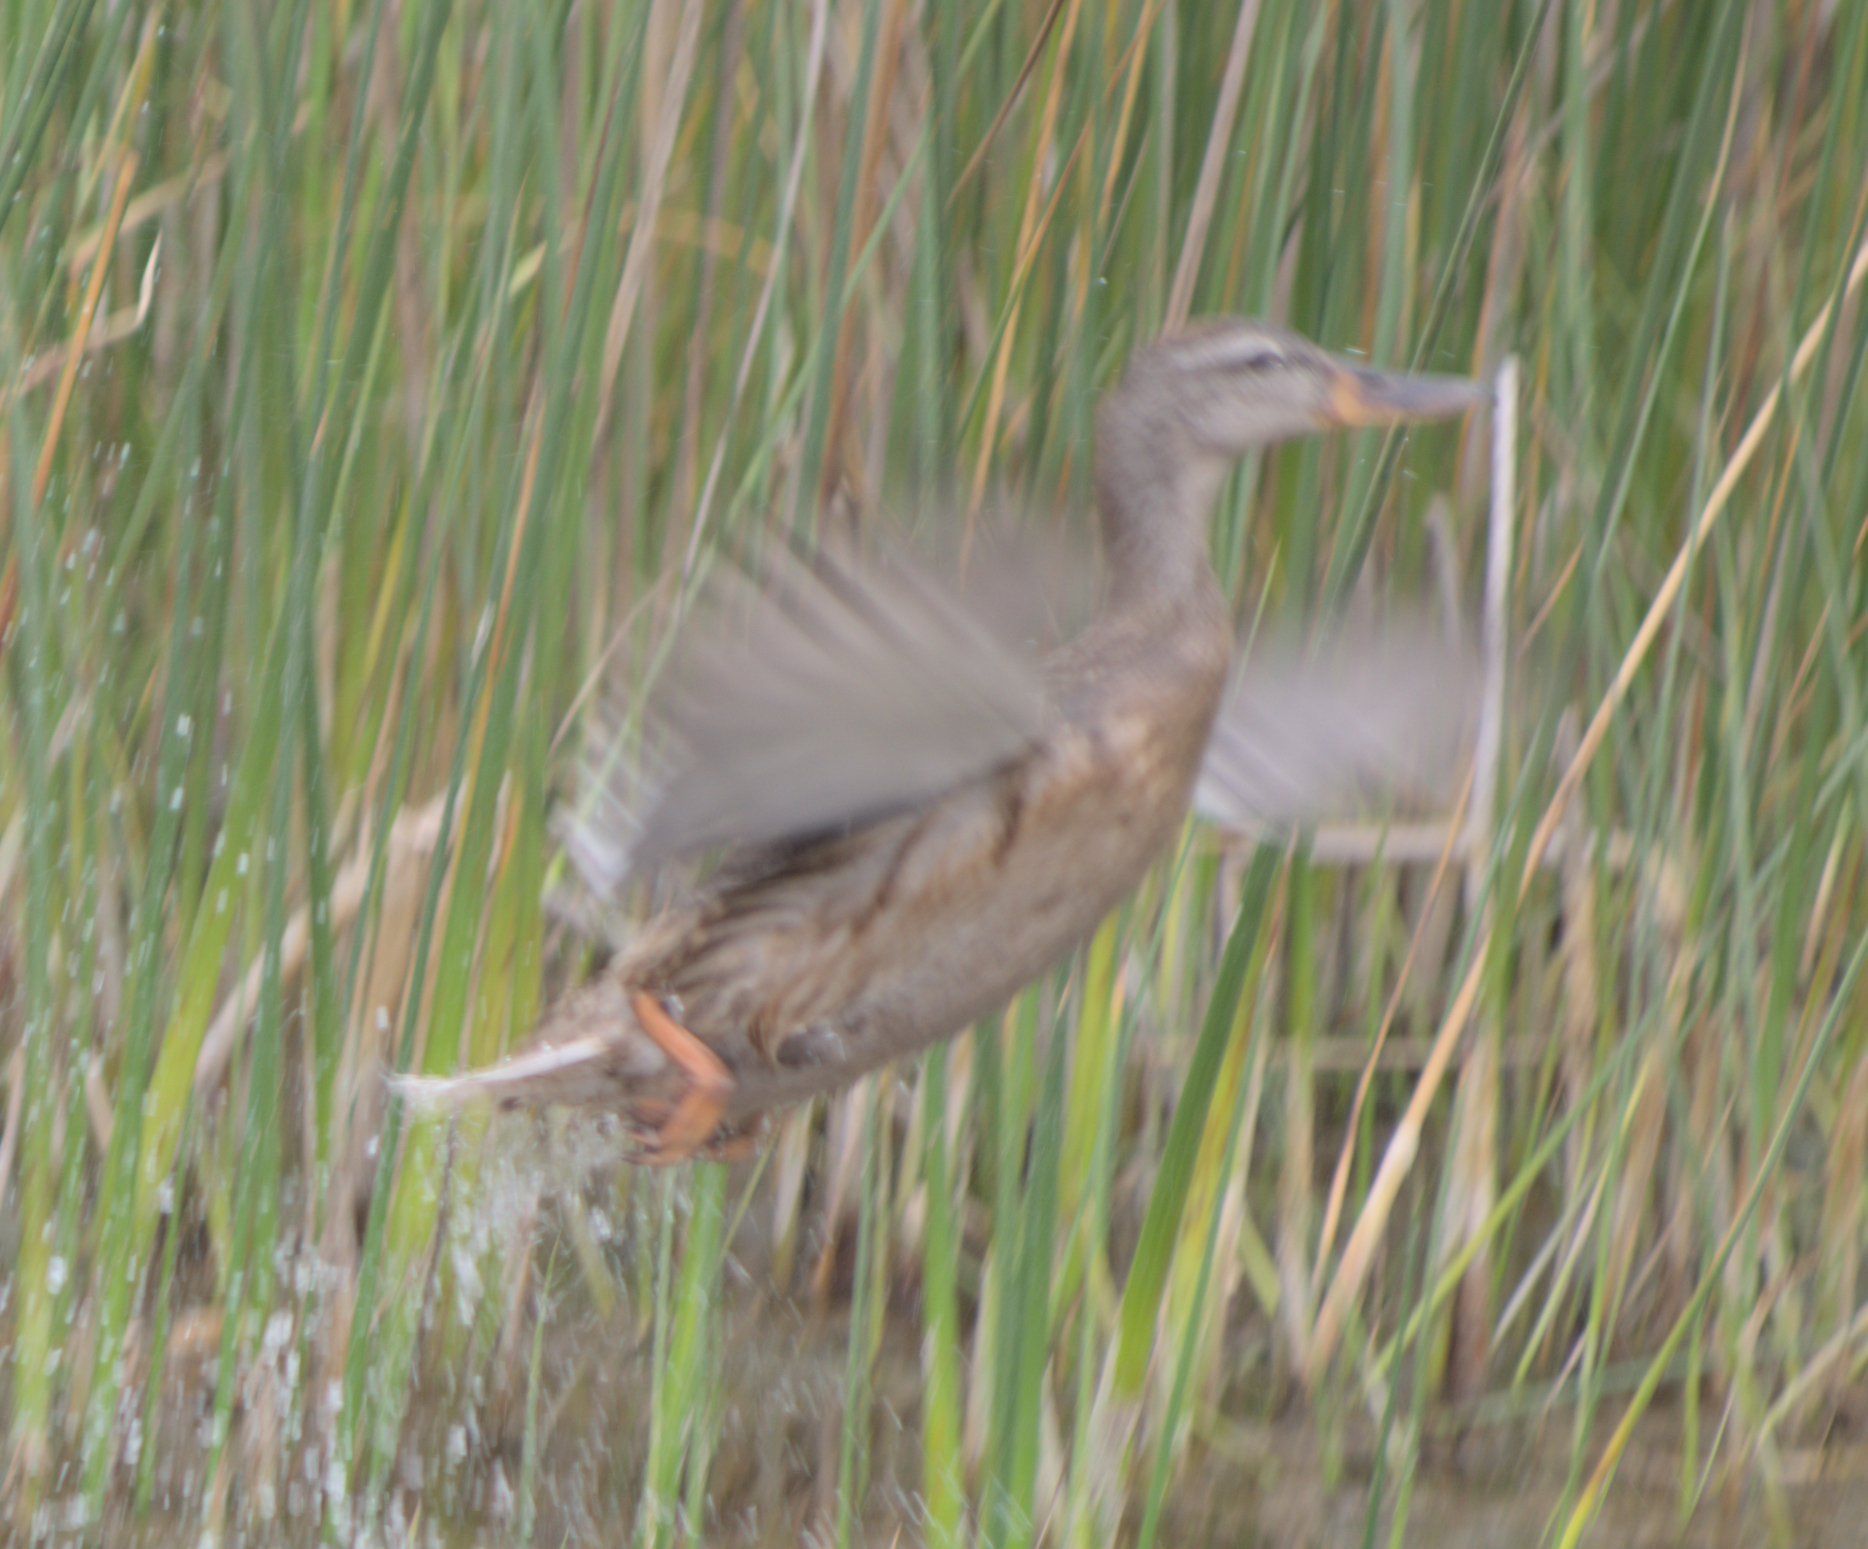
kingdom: Animalia
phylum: Chordata
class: Aves
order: Anseriformes
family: Anatidae
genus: Anas
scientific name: Anas platyrhynchos
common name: Mallard
